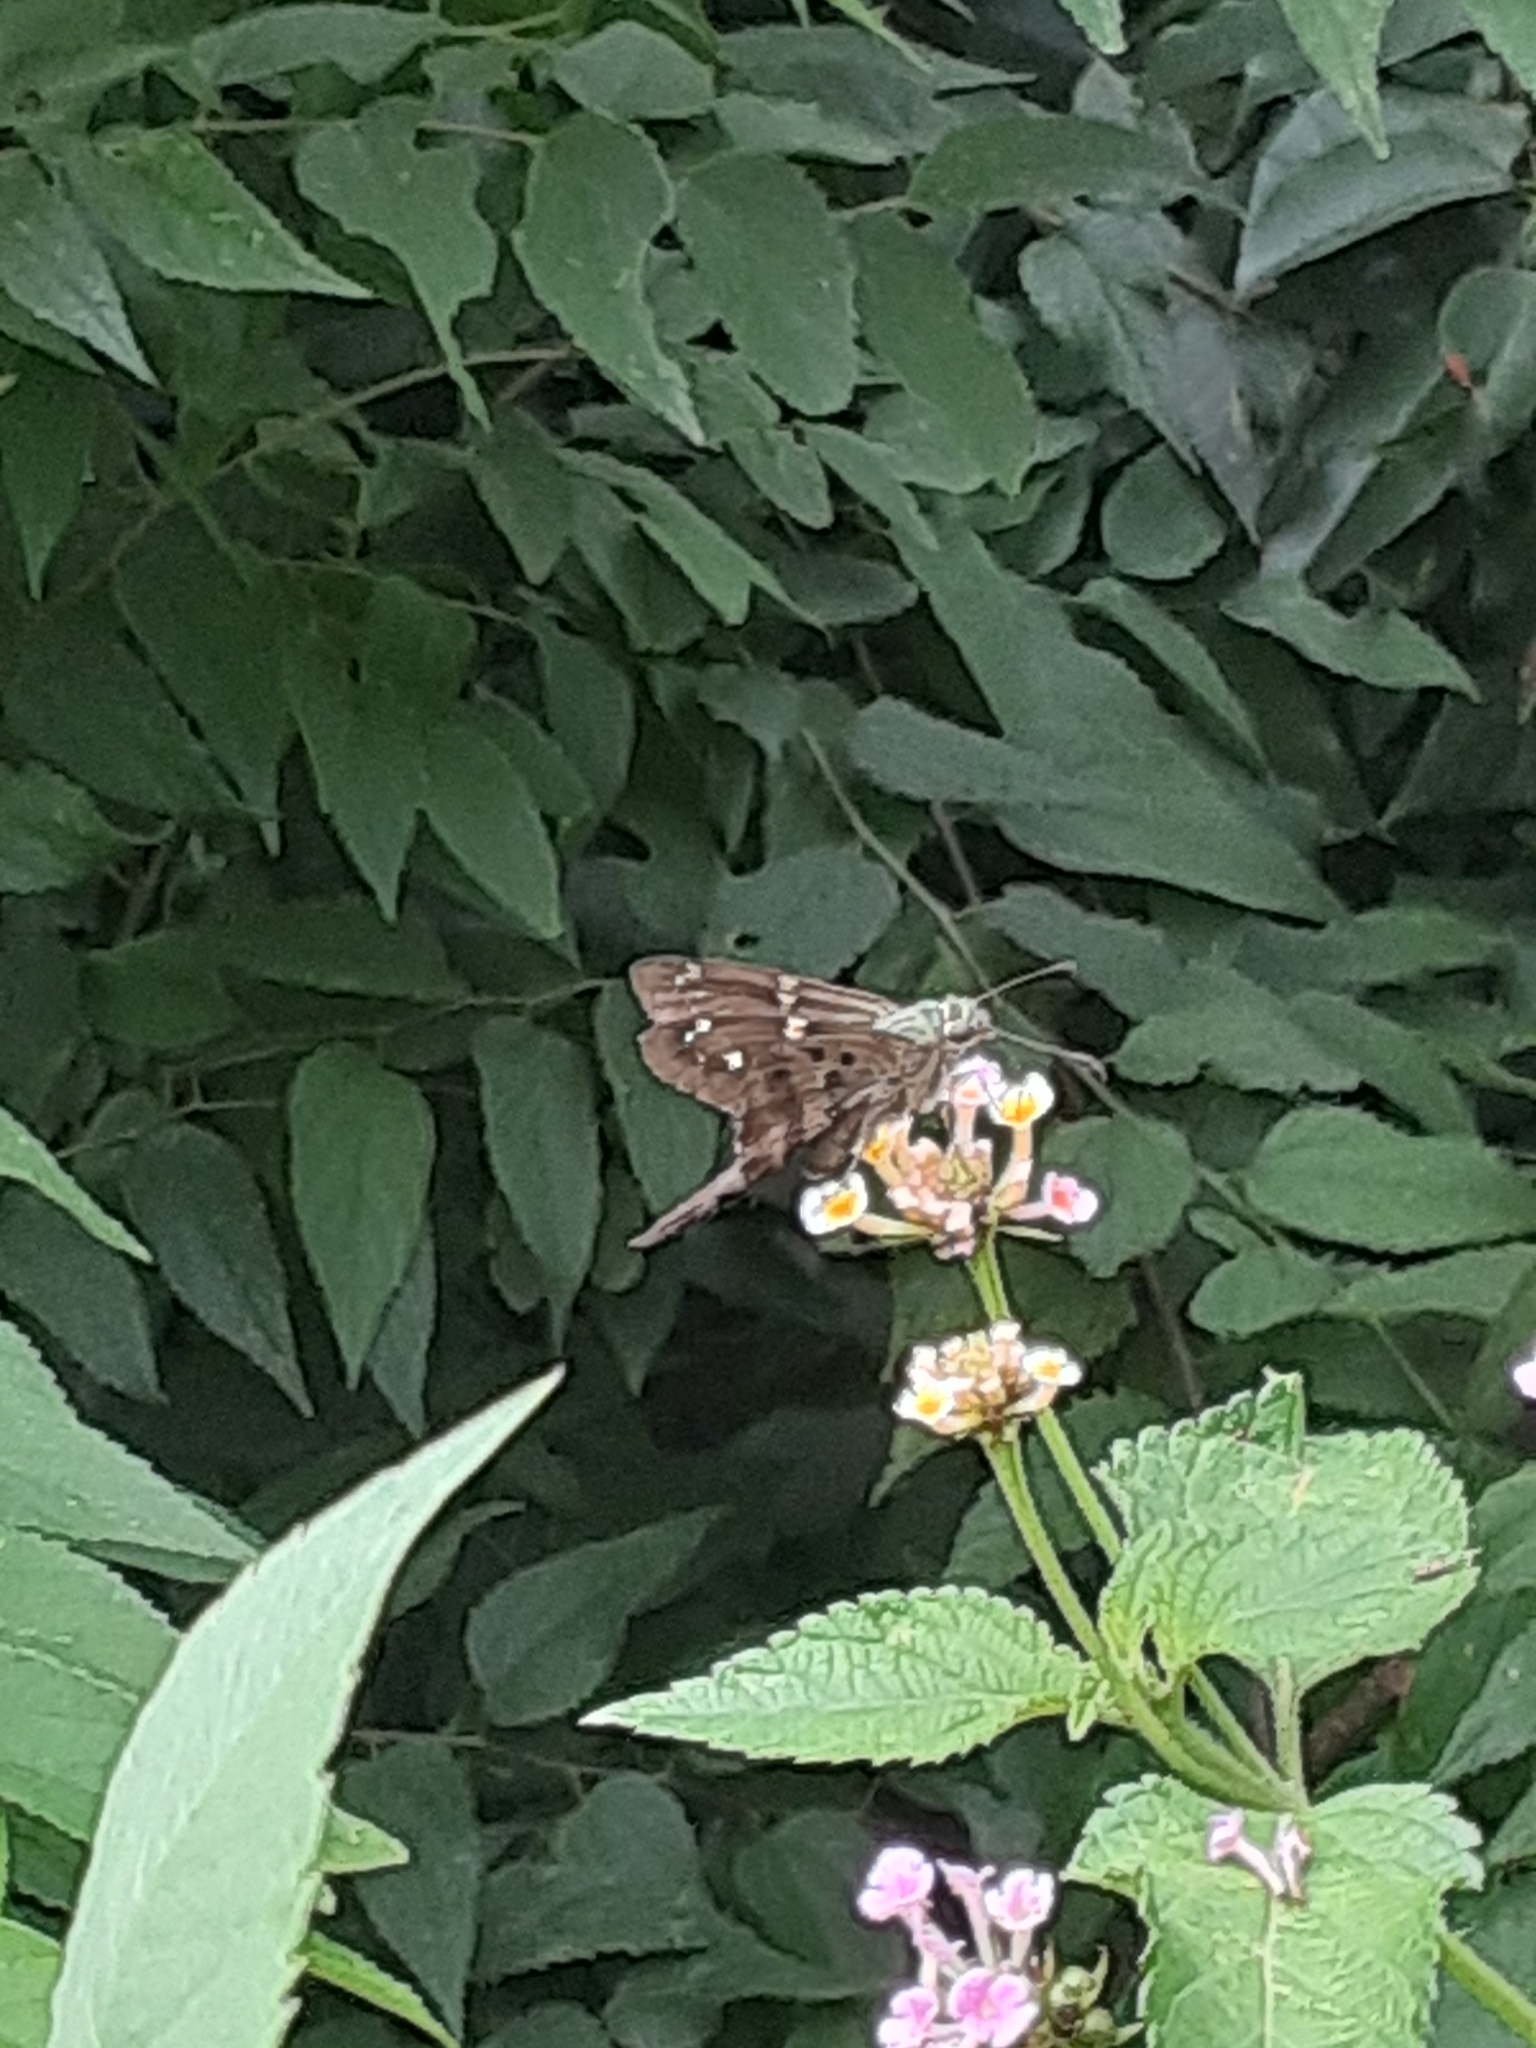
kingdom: Animalia
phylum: Arthropoda
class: Insecta
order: Lepidoptera
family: Hesperiidae
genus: Urbanus
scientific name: Urbanus proteus
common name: Long-tailed skipper
